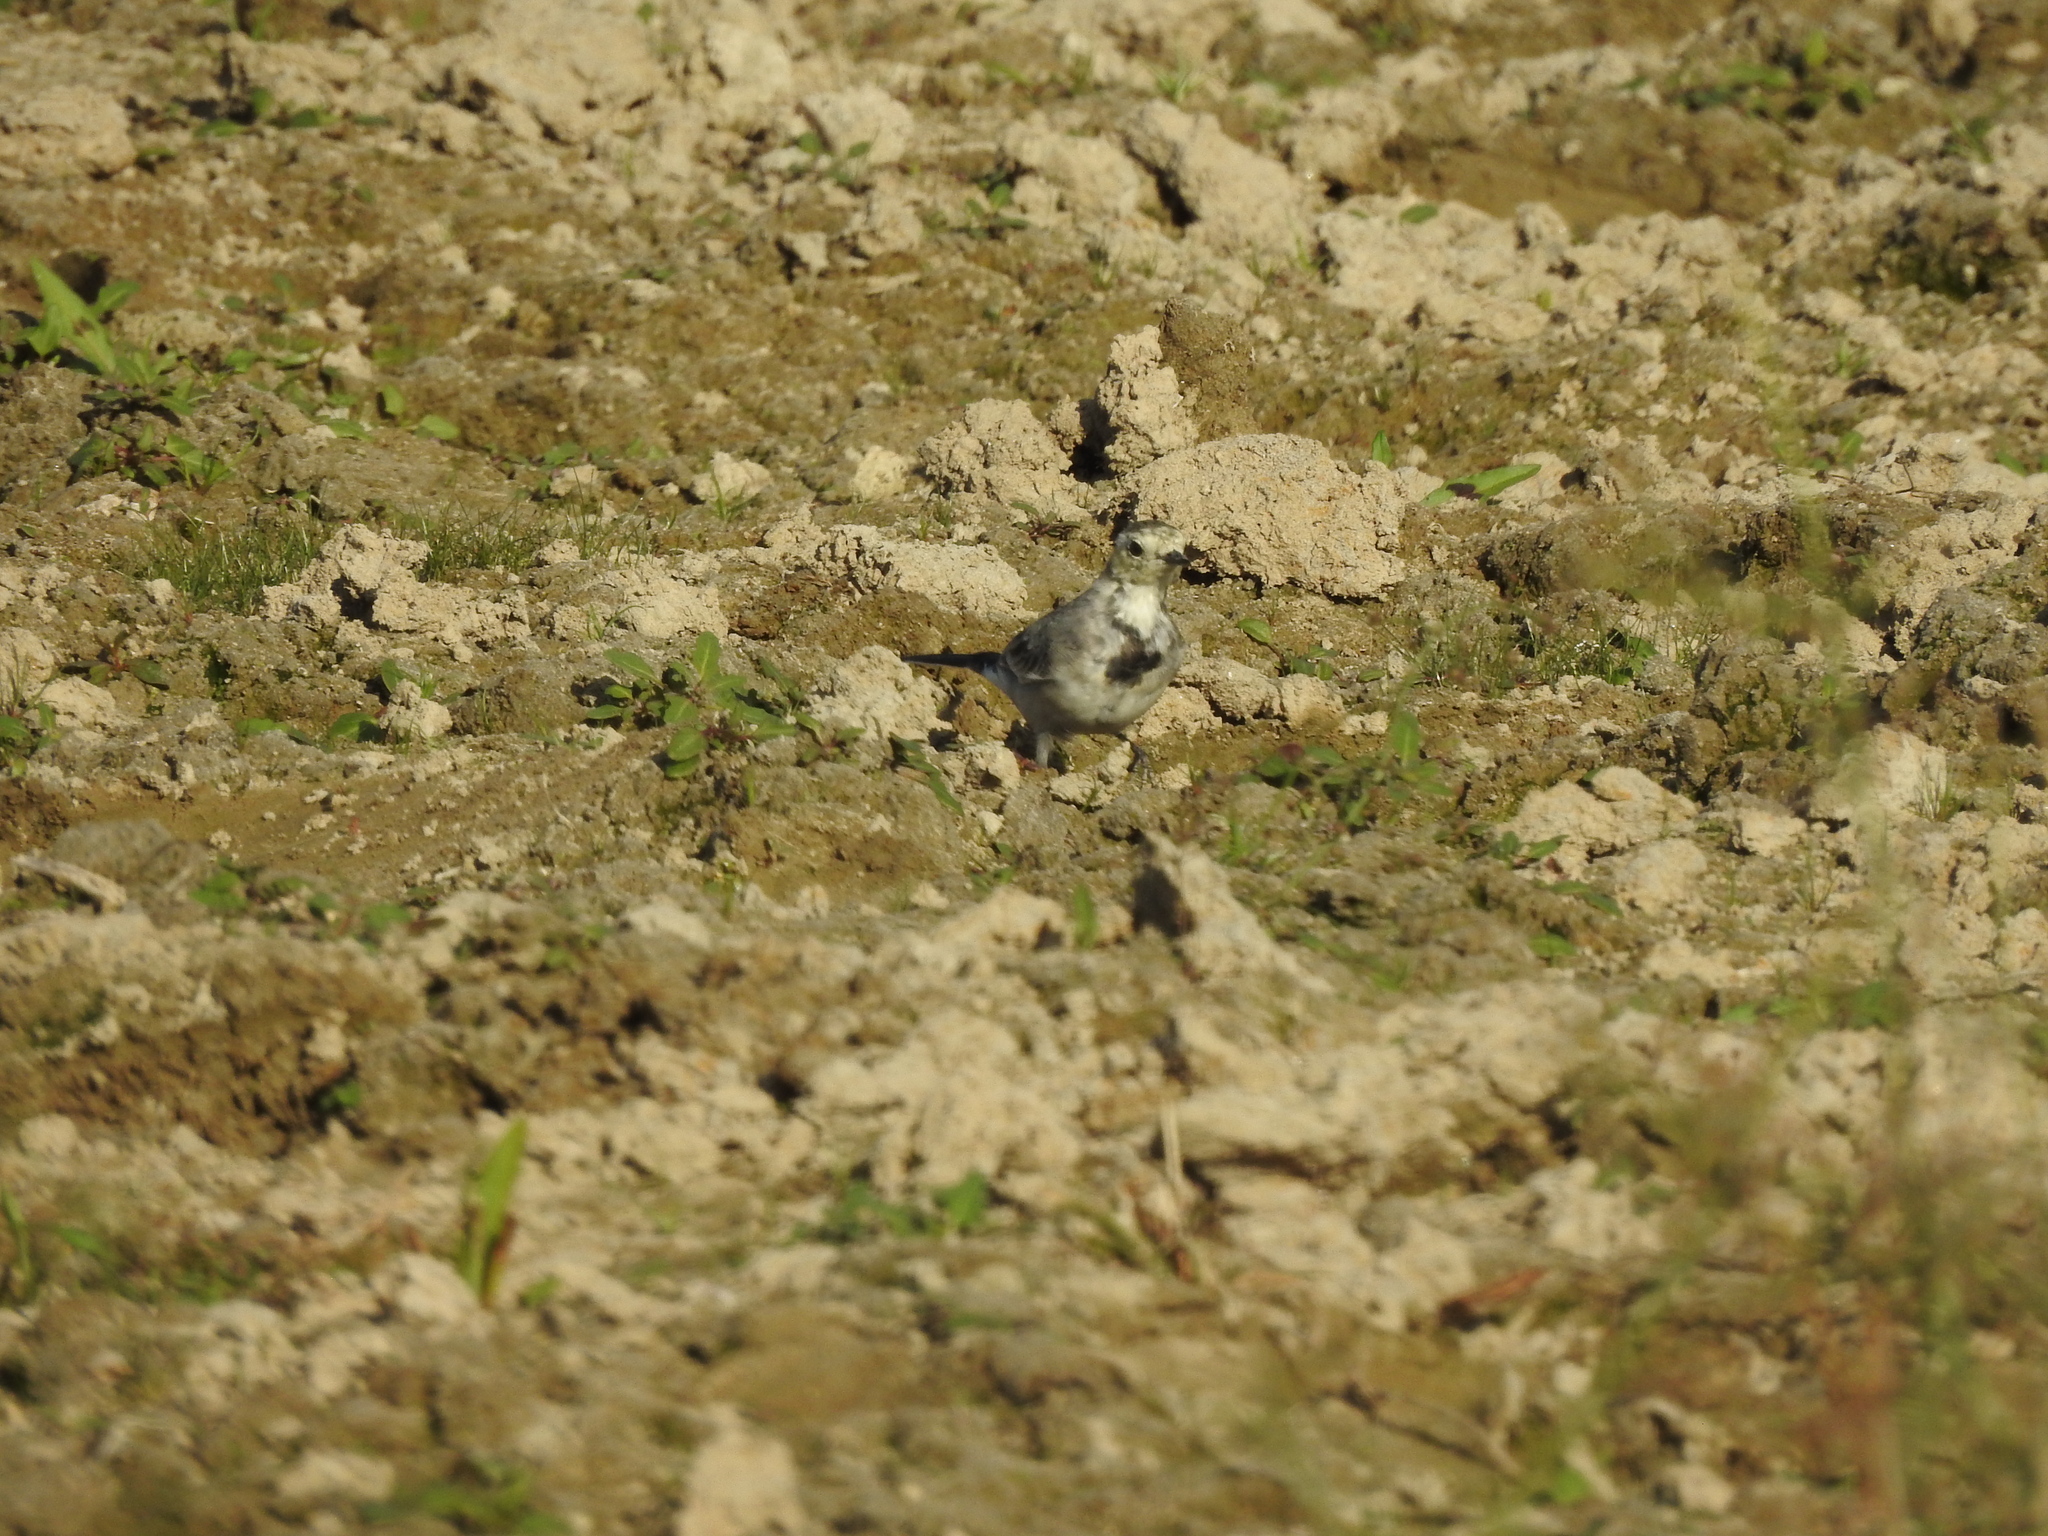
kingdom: Animalia
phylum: Chordata
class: Aves
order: Passeriformes
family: Motacillidae
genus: Motacilla
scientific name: Motacilla alba
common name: White wagtail
